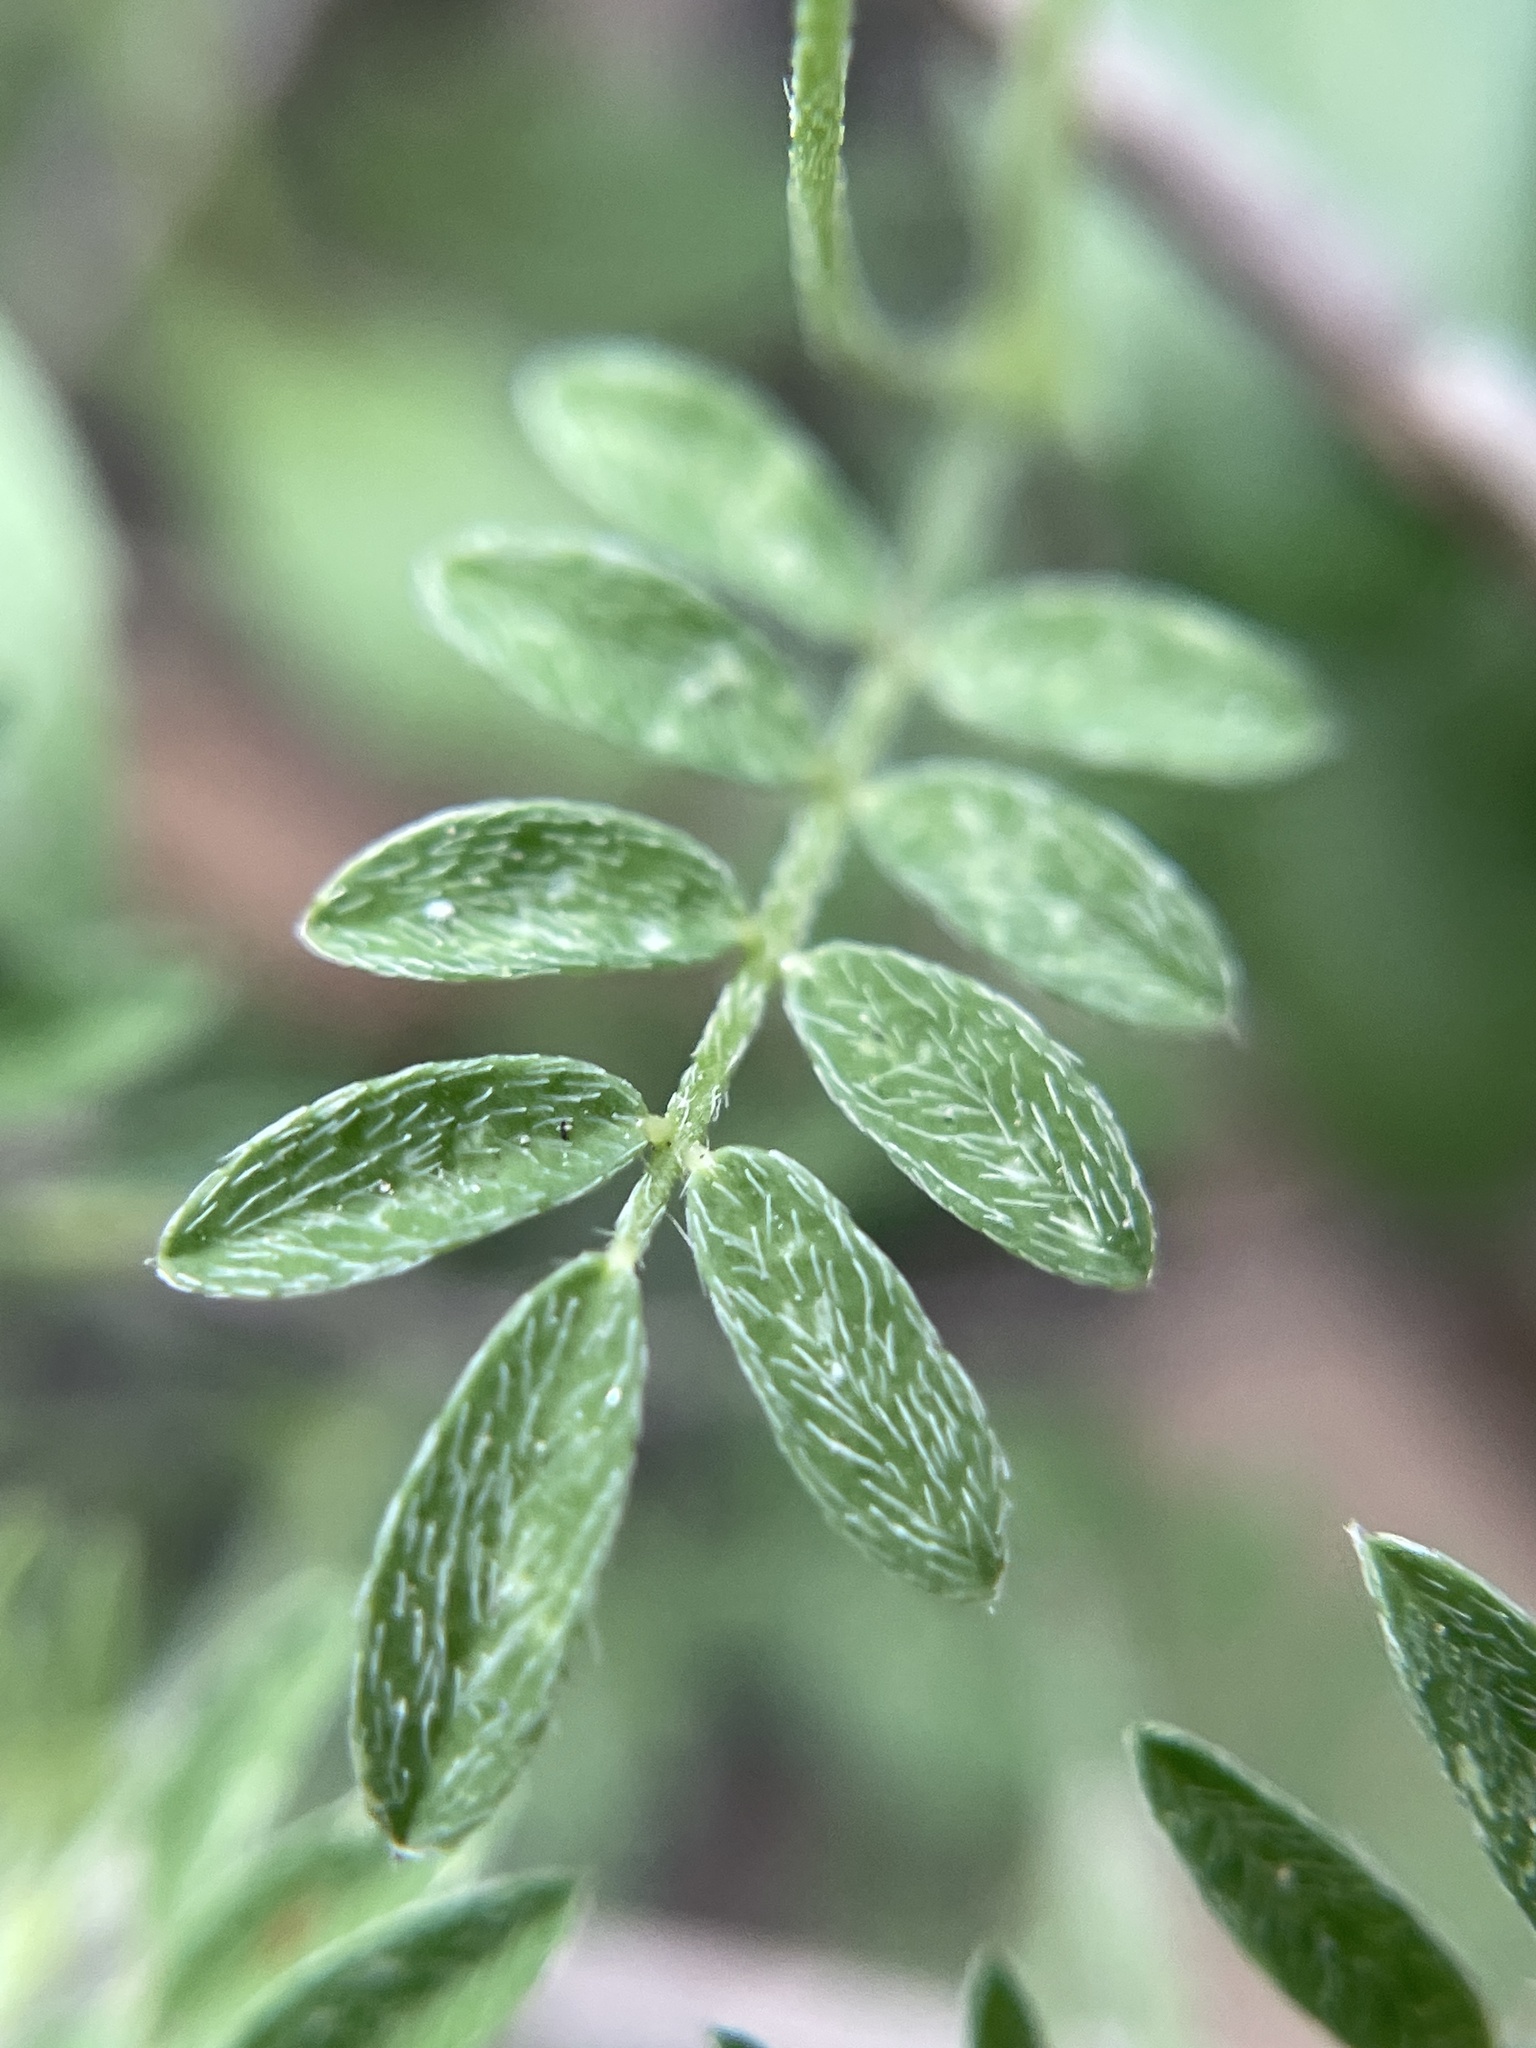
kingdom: Plantae
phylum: Tracheophyta
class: Magnoliopsida
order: Fabales
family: Fabaceae
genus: Astragalus
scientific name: Astragalus nuttallianus
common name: Smallflowered milkvetch
